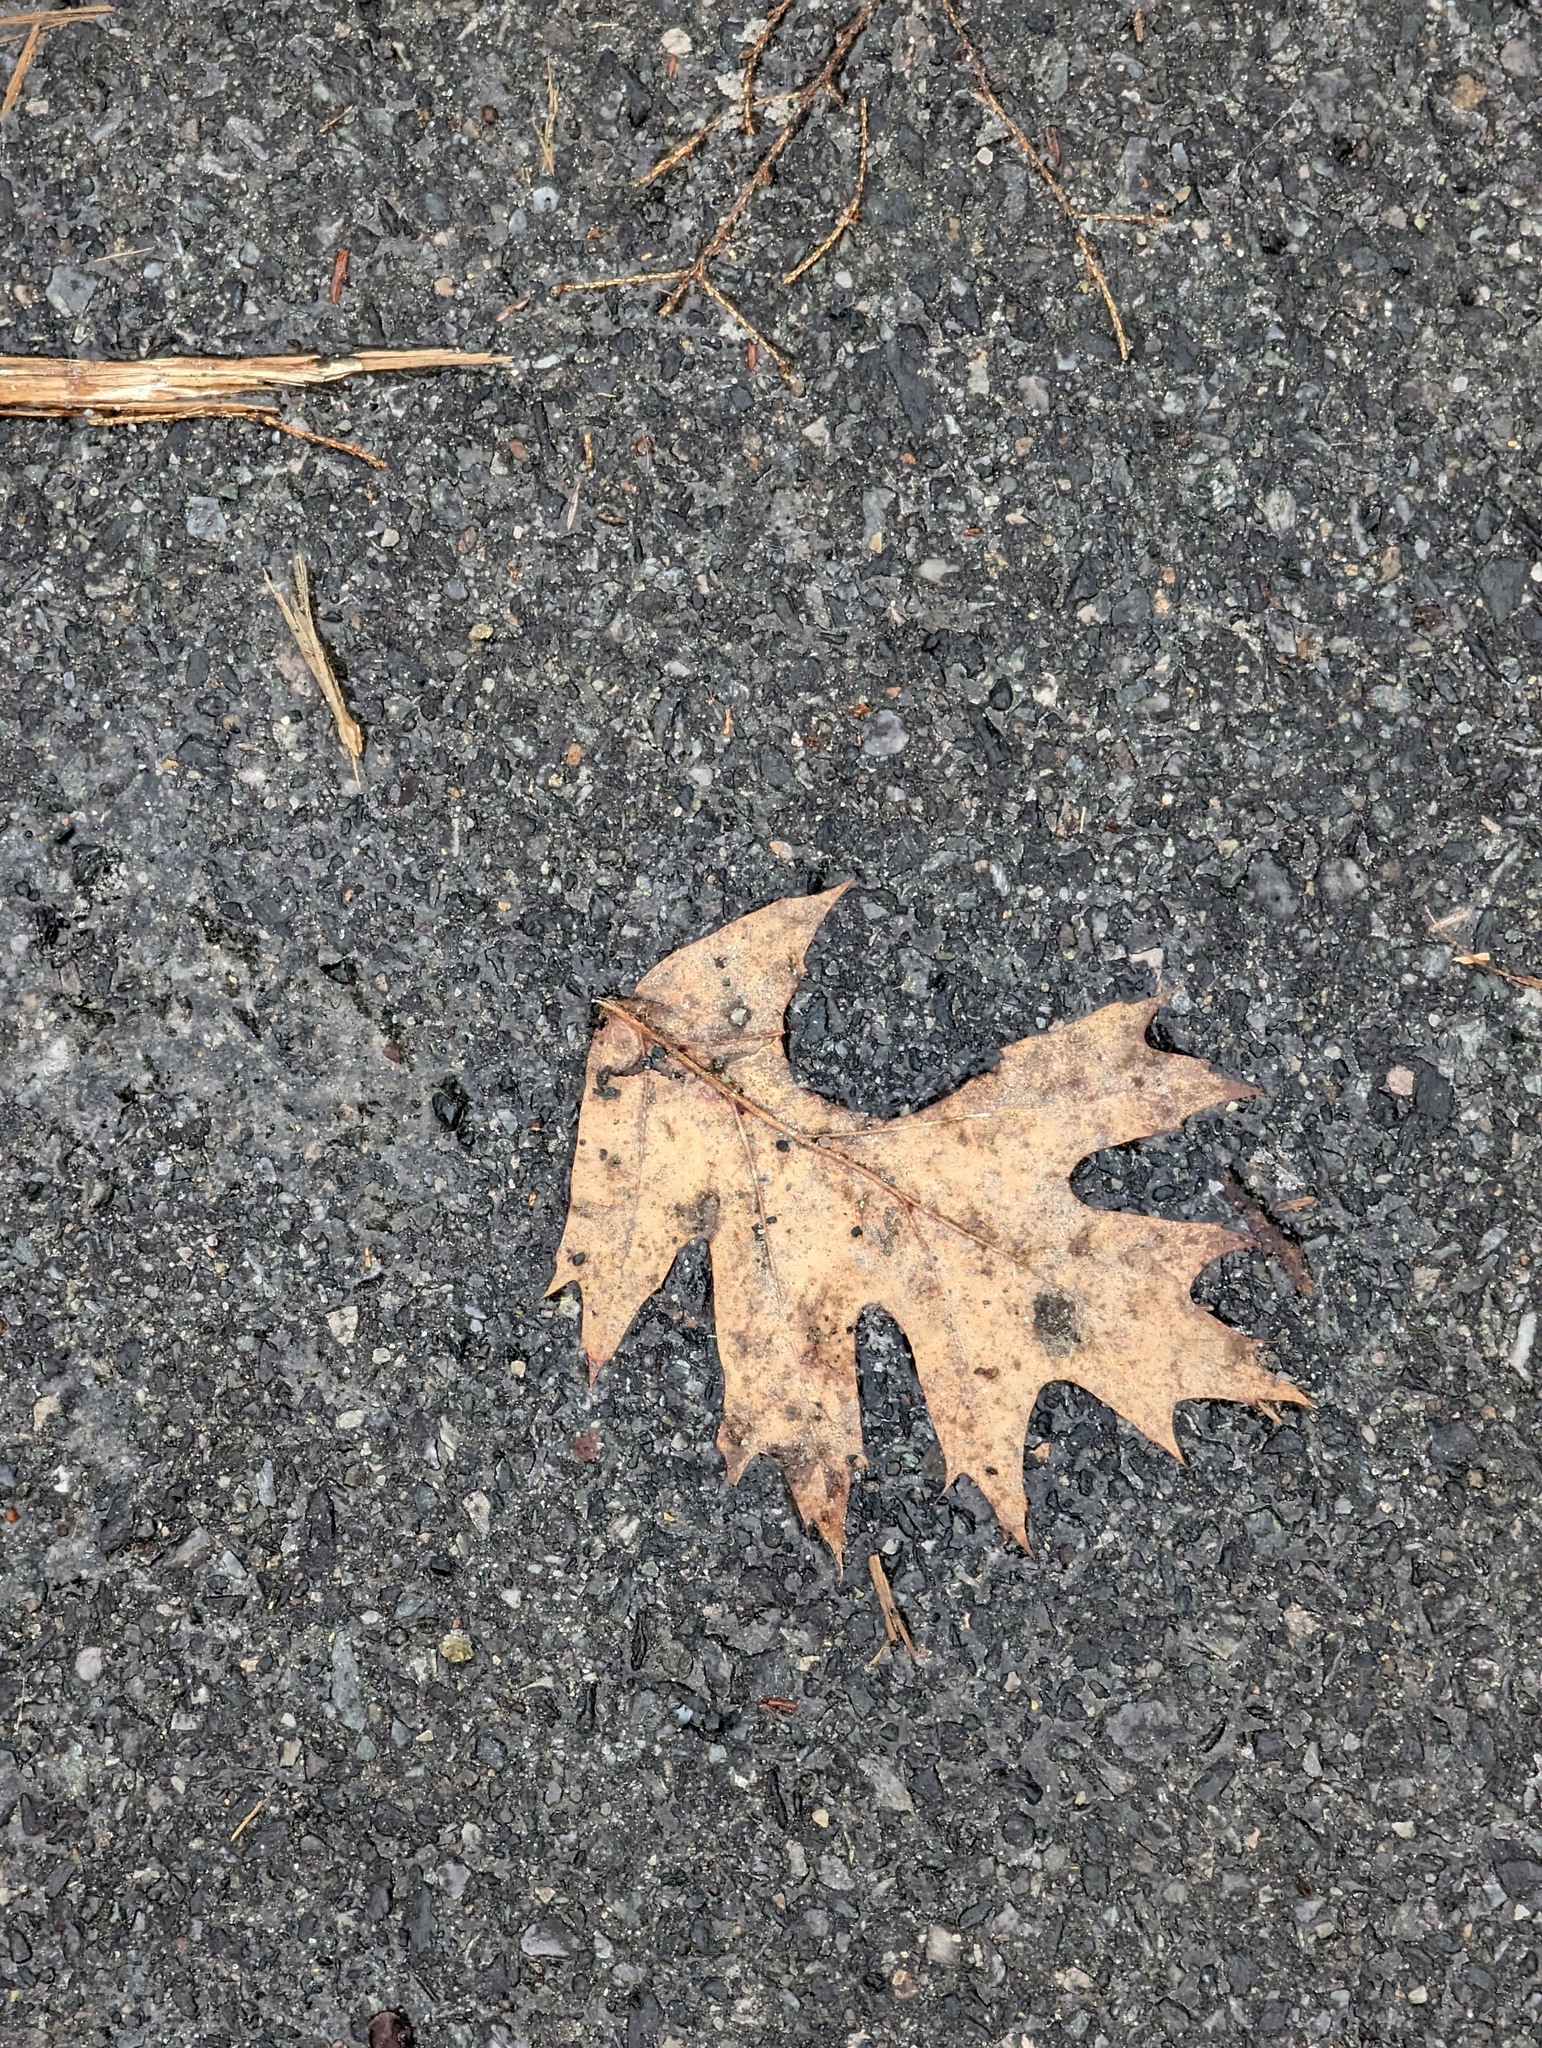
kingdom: Plantae
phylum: Tracheophyta
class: Magnoliopsida
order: Fagales
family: Fagaceae
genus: Quercus
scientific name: Quercus rubra
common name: Red oak
